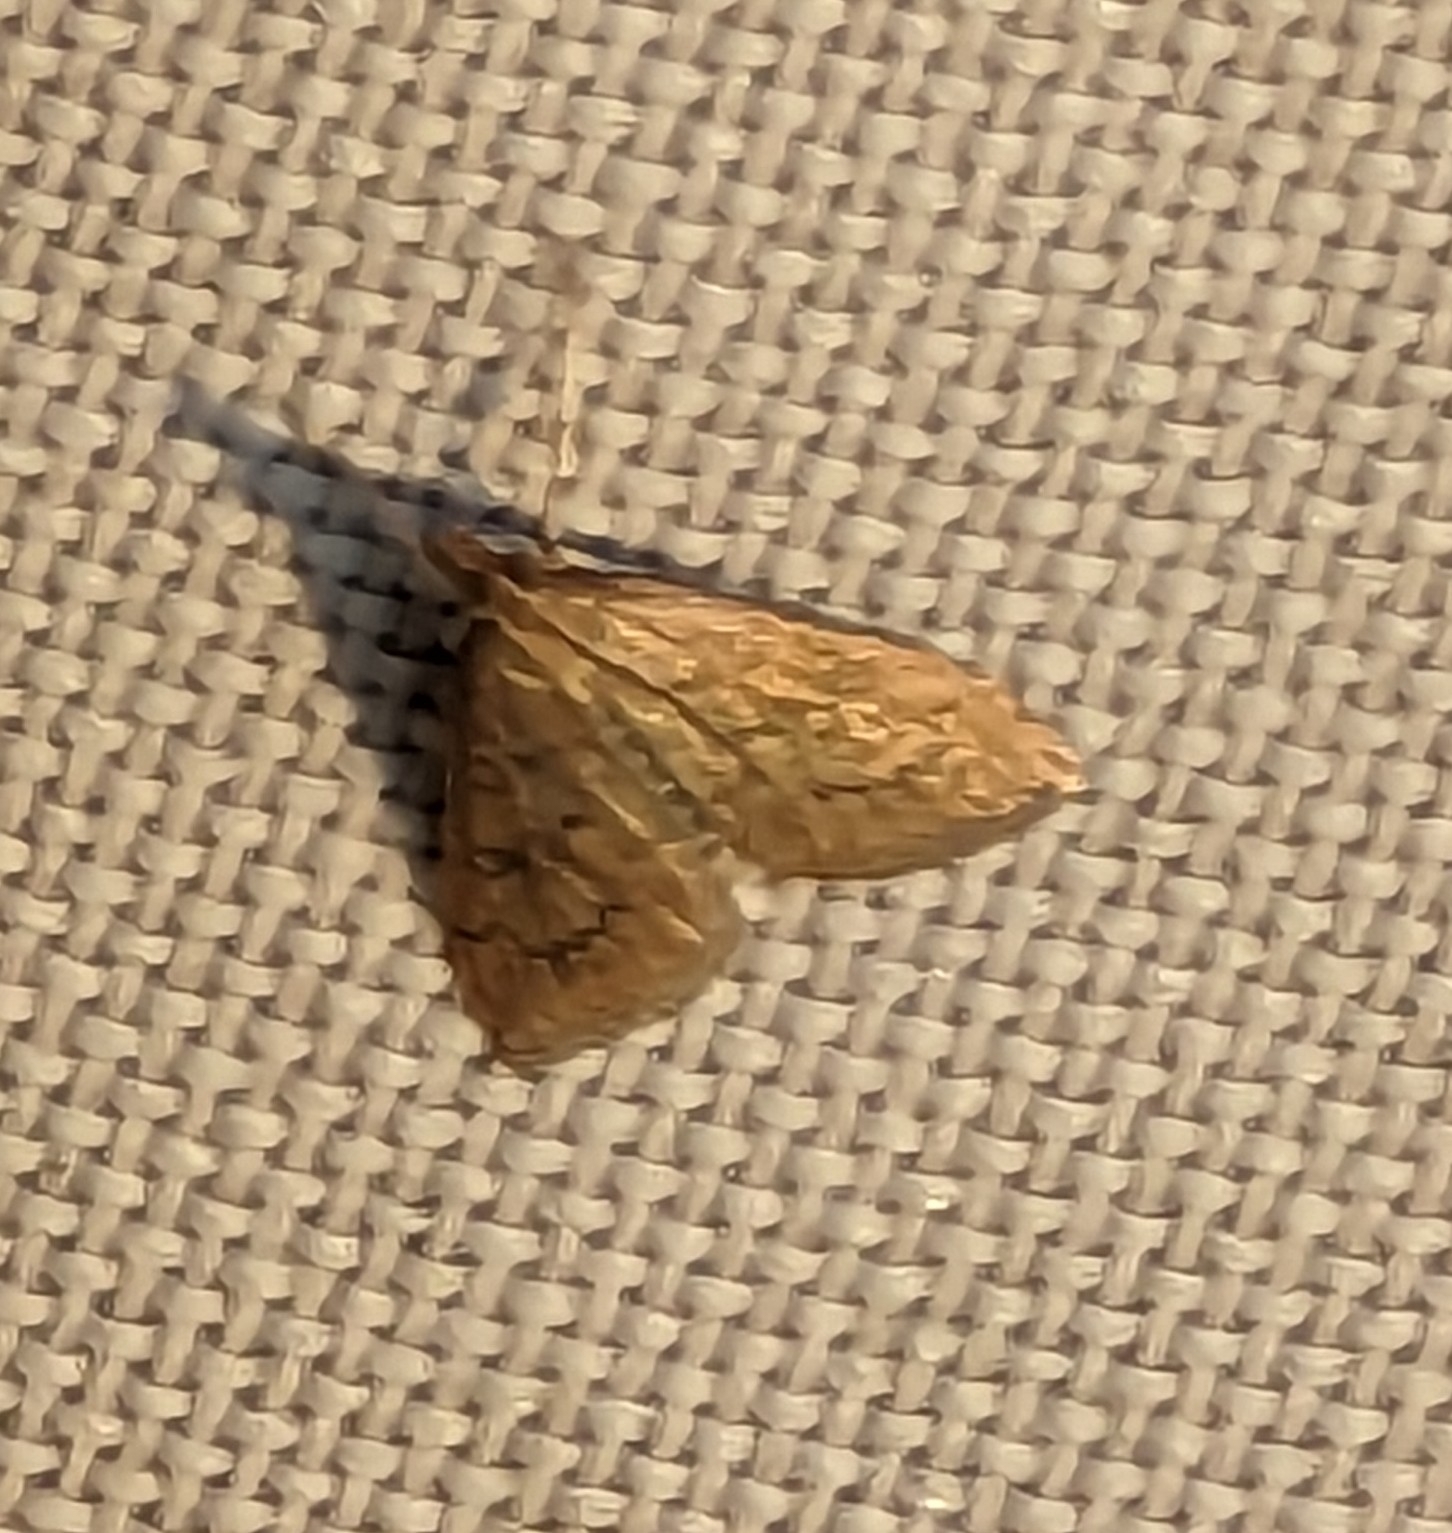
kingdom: Animalia
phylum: Arthropoda
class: Insecta
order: Lepidoptera
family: Crambidae
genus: Udea
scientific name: Udea rubigalis
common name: Celery leaftier moth
